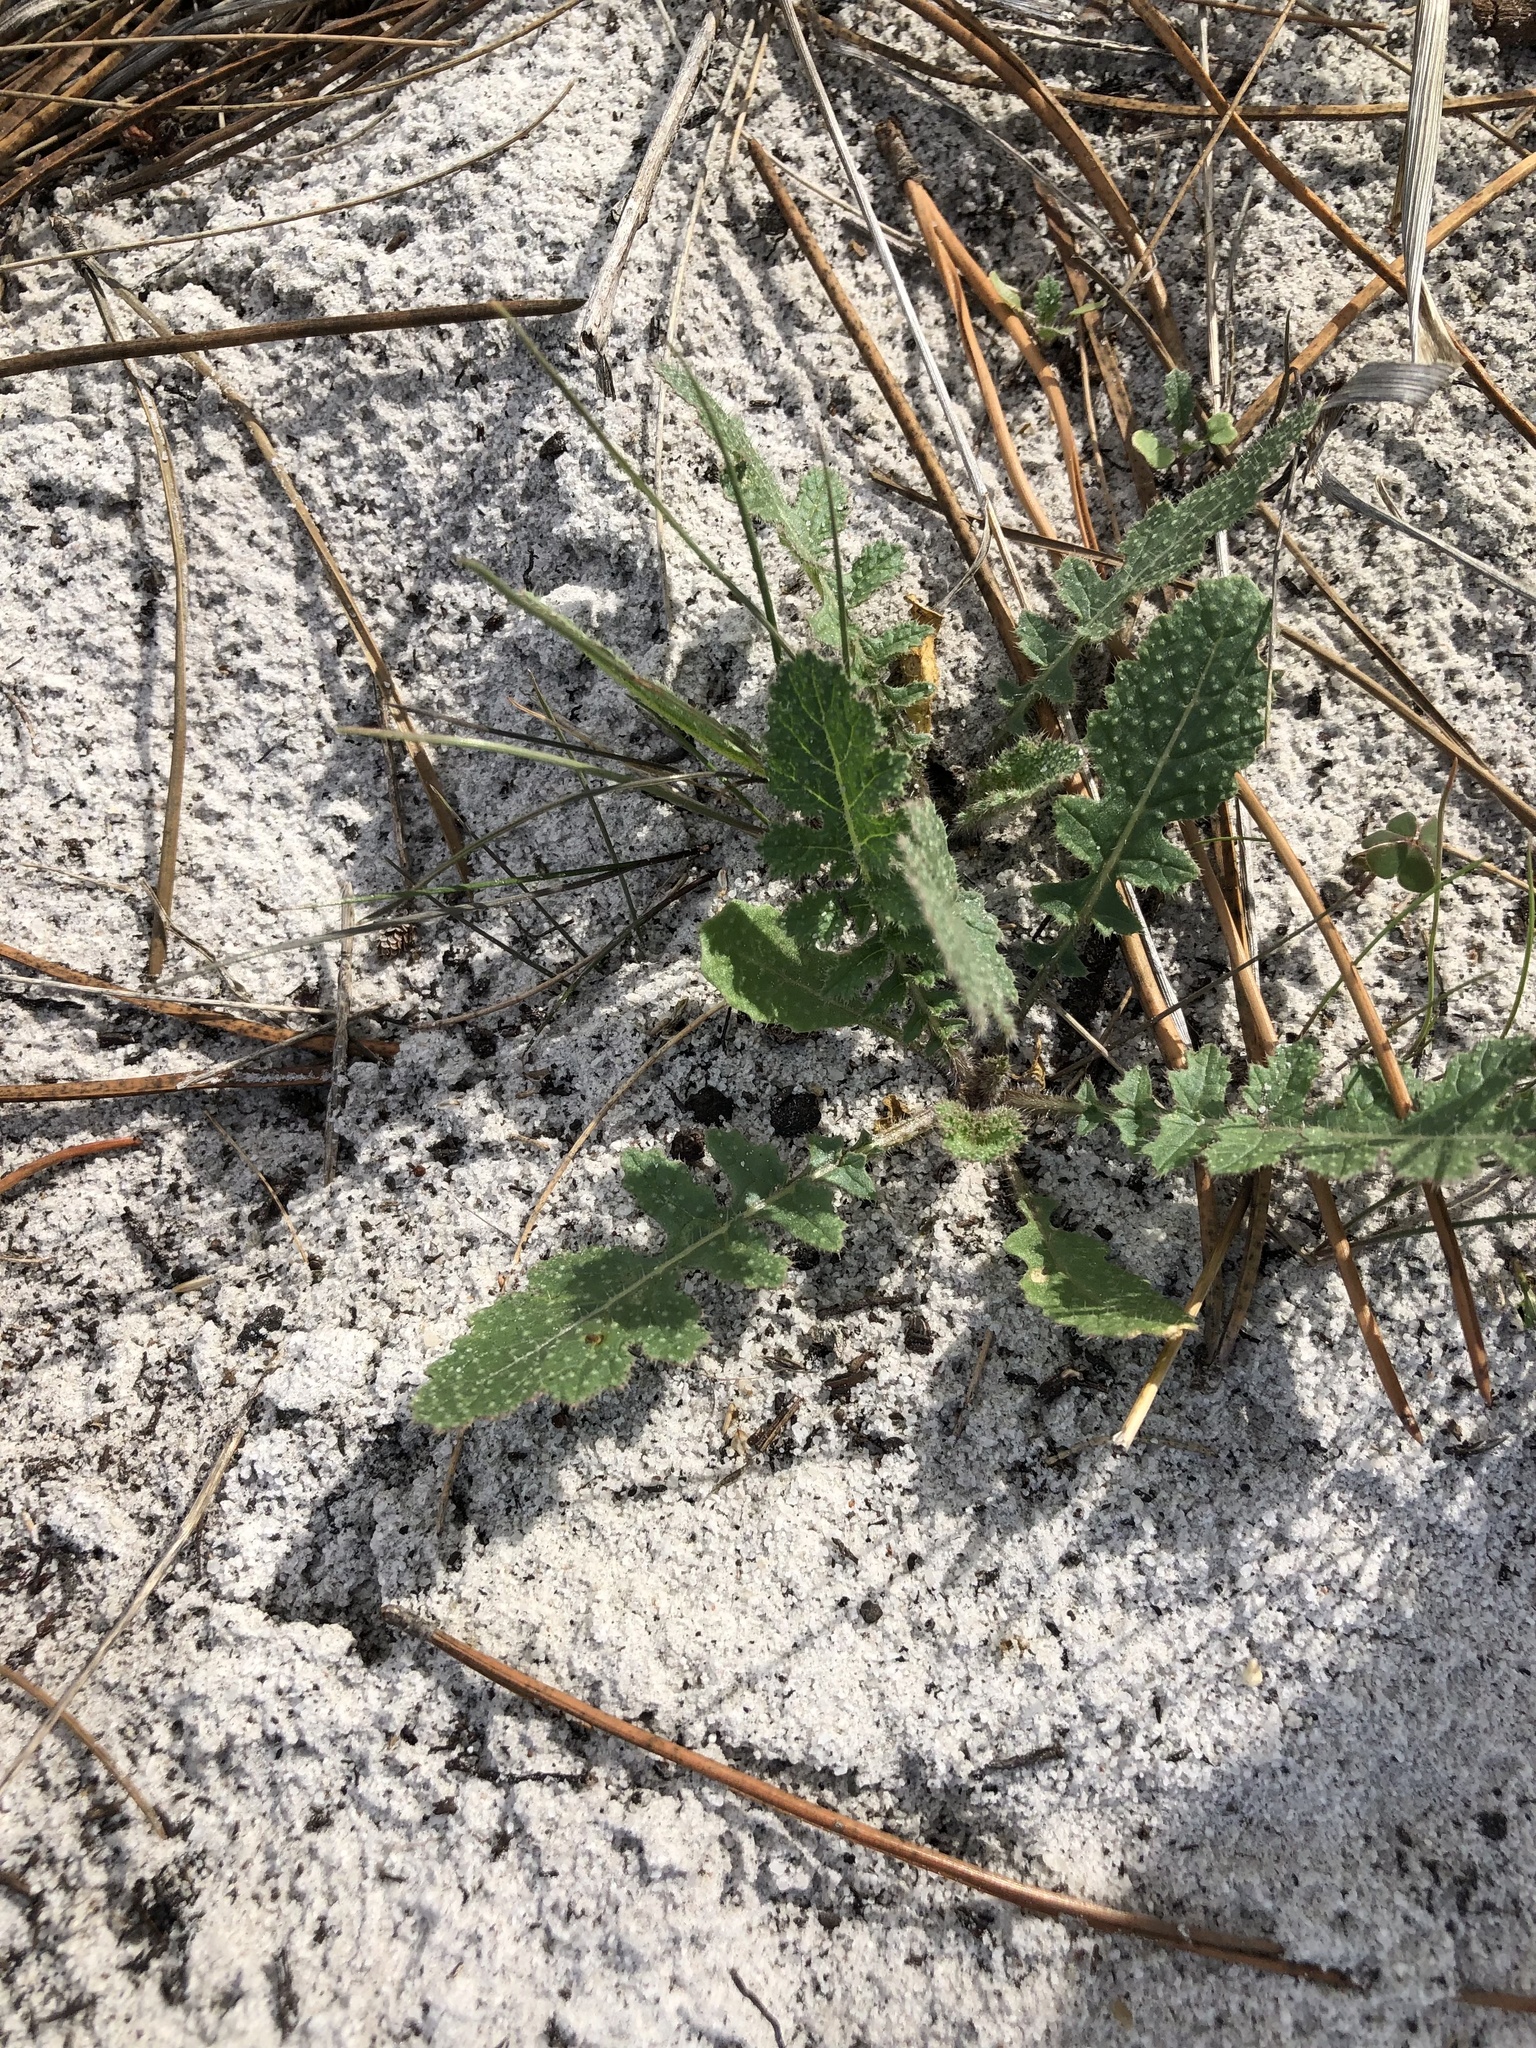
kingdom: Plantae
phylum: Tracheophyta
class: Magnoliopsida
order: Brassicales
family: Brassicaceae
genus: Brassica
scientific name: Brassica tournefortii
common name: Pale cabbage
